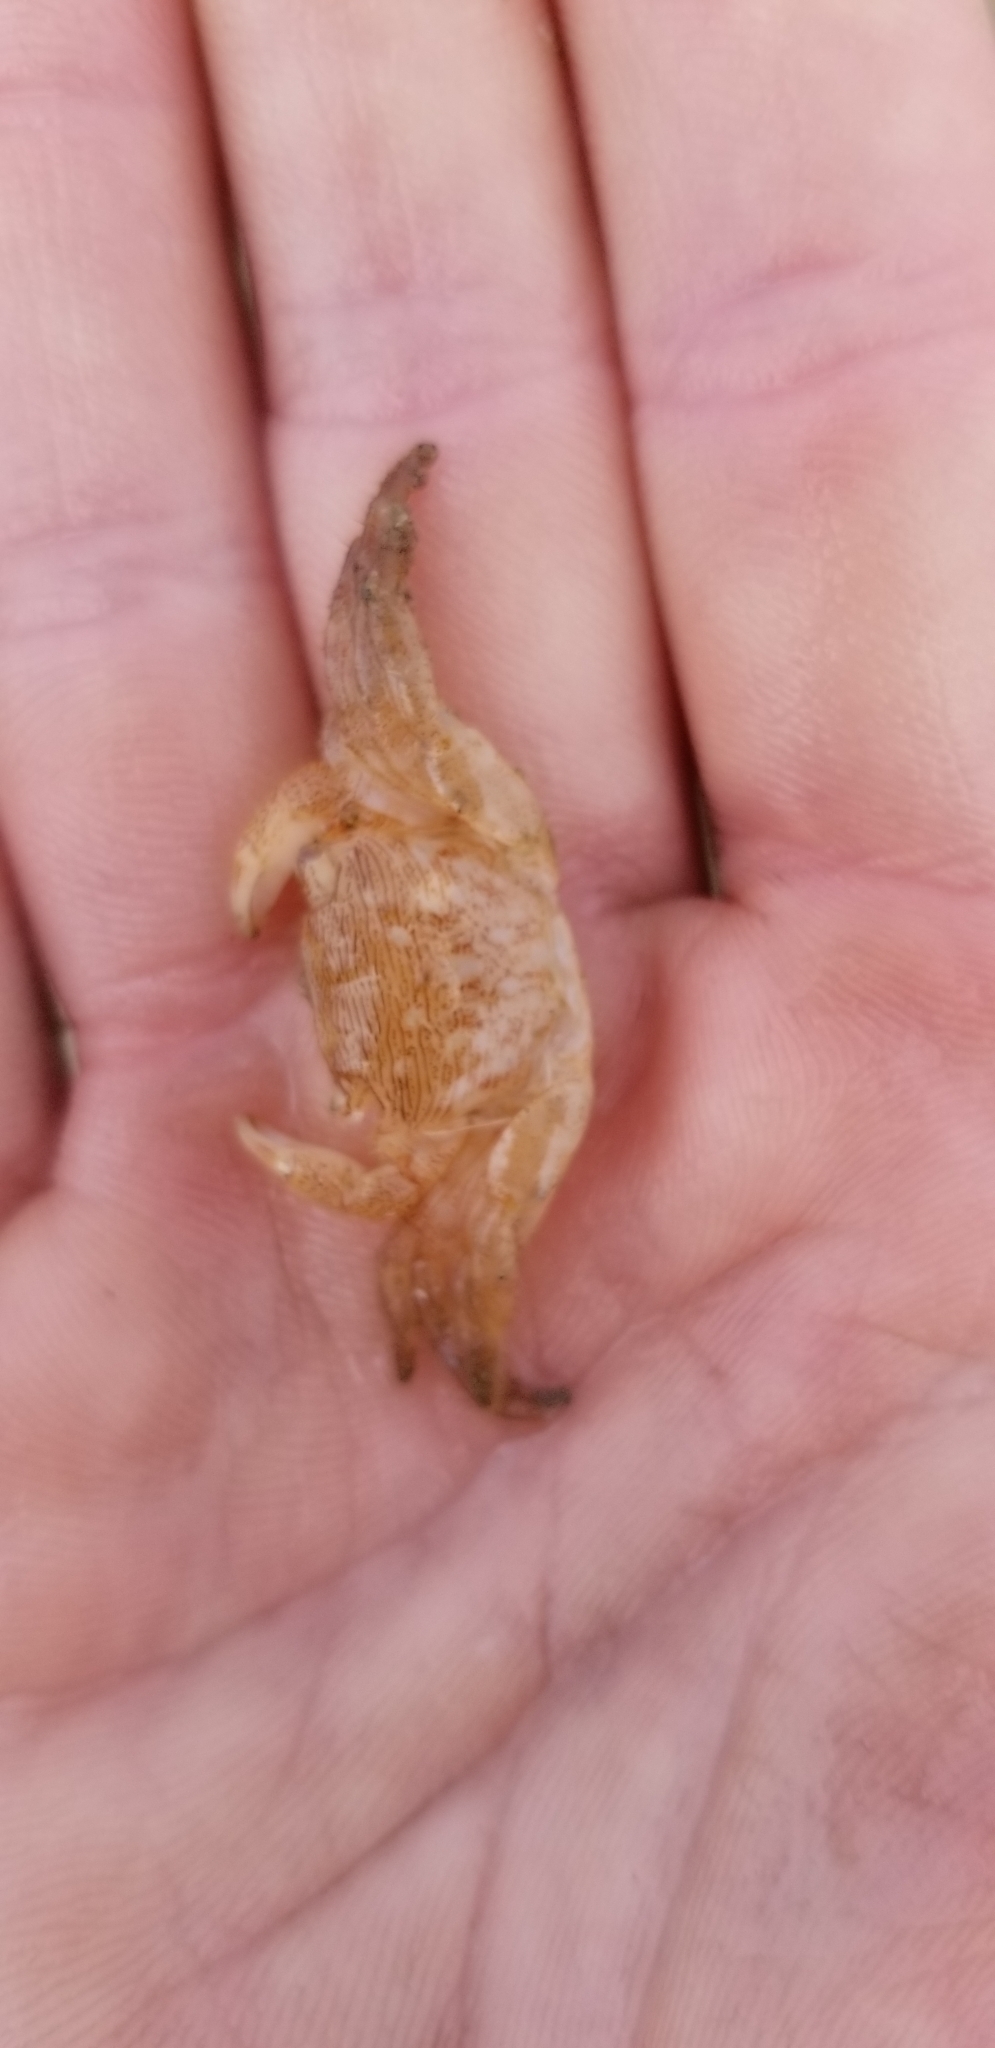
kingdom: Animalia
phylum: Arthropoda
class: Malacostraca
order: Decapoda
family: Grapsidae
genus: Pachygrapsus
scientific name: Pachygrapsus crassipes
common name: Striped shore crab
